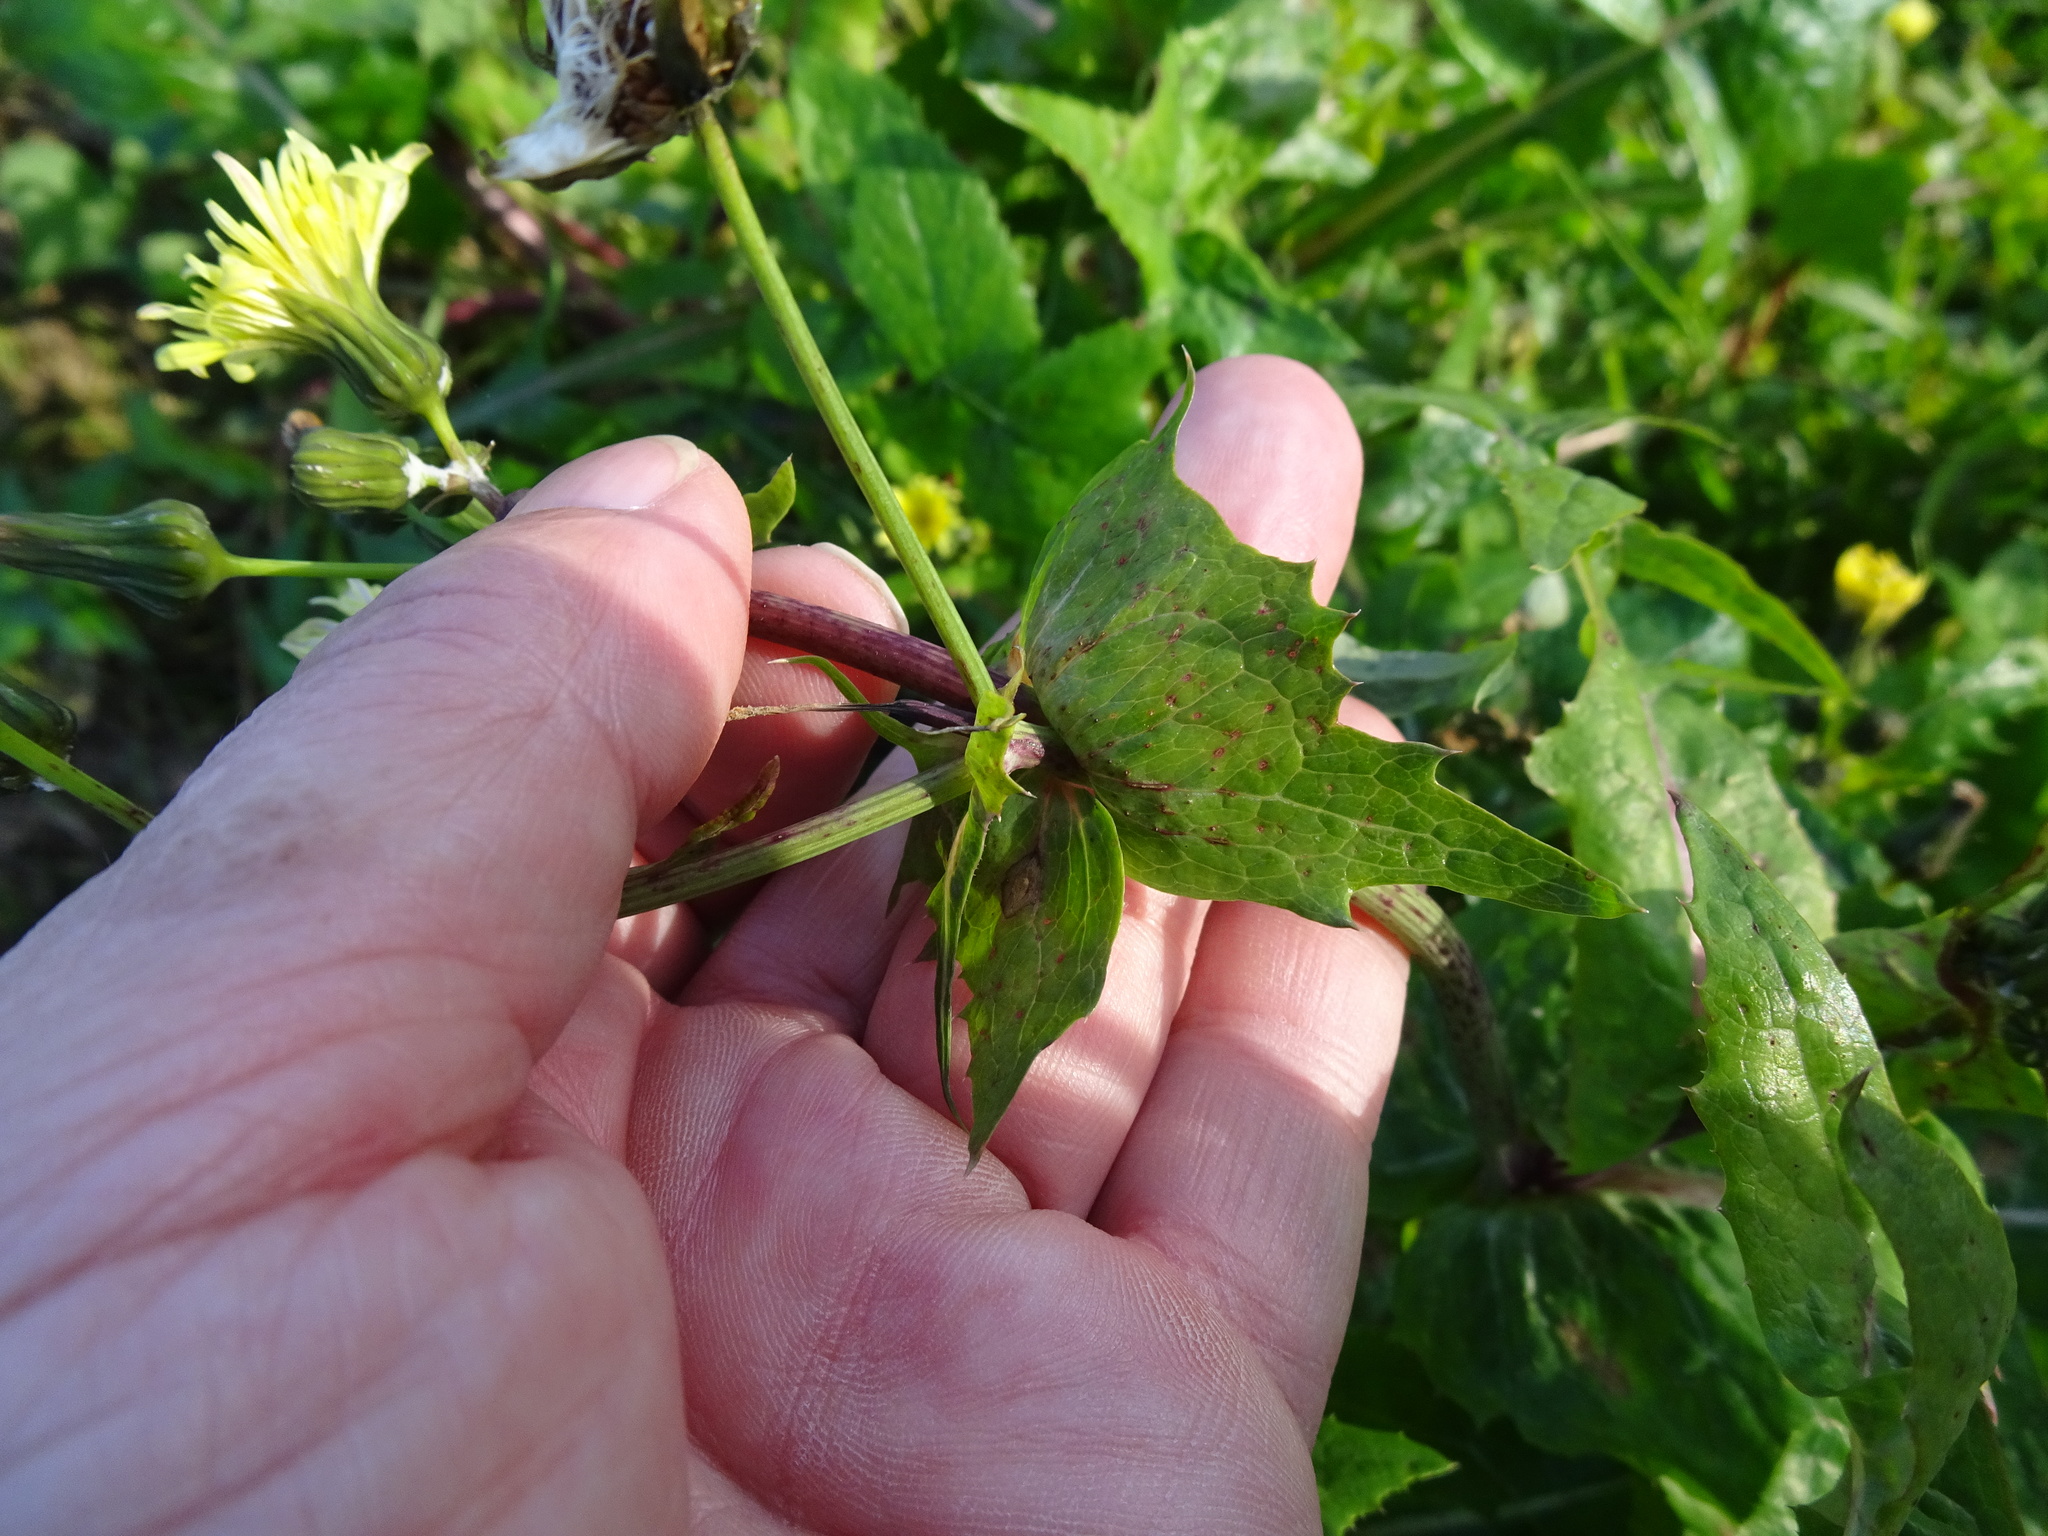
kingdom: Plantae
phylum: Tracheophyta
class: Magnoliopsida
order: Asterales
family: Asteraceae
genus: Sonchus
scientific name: Sonchus oleraceus
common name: Common sowthistle
